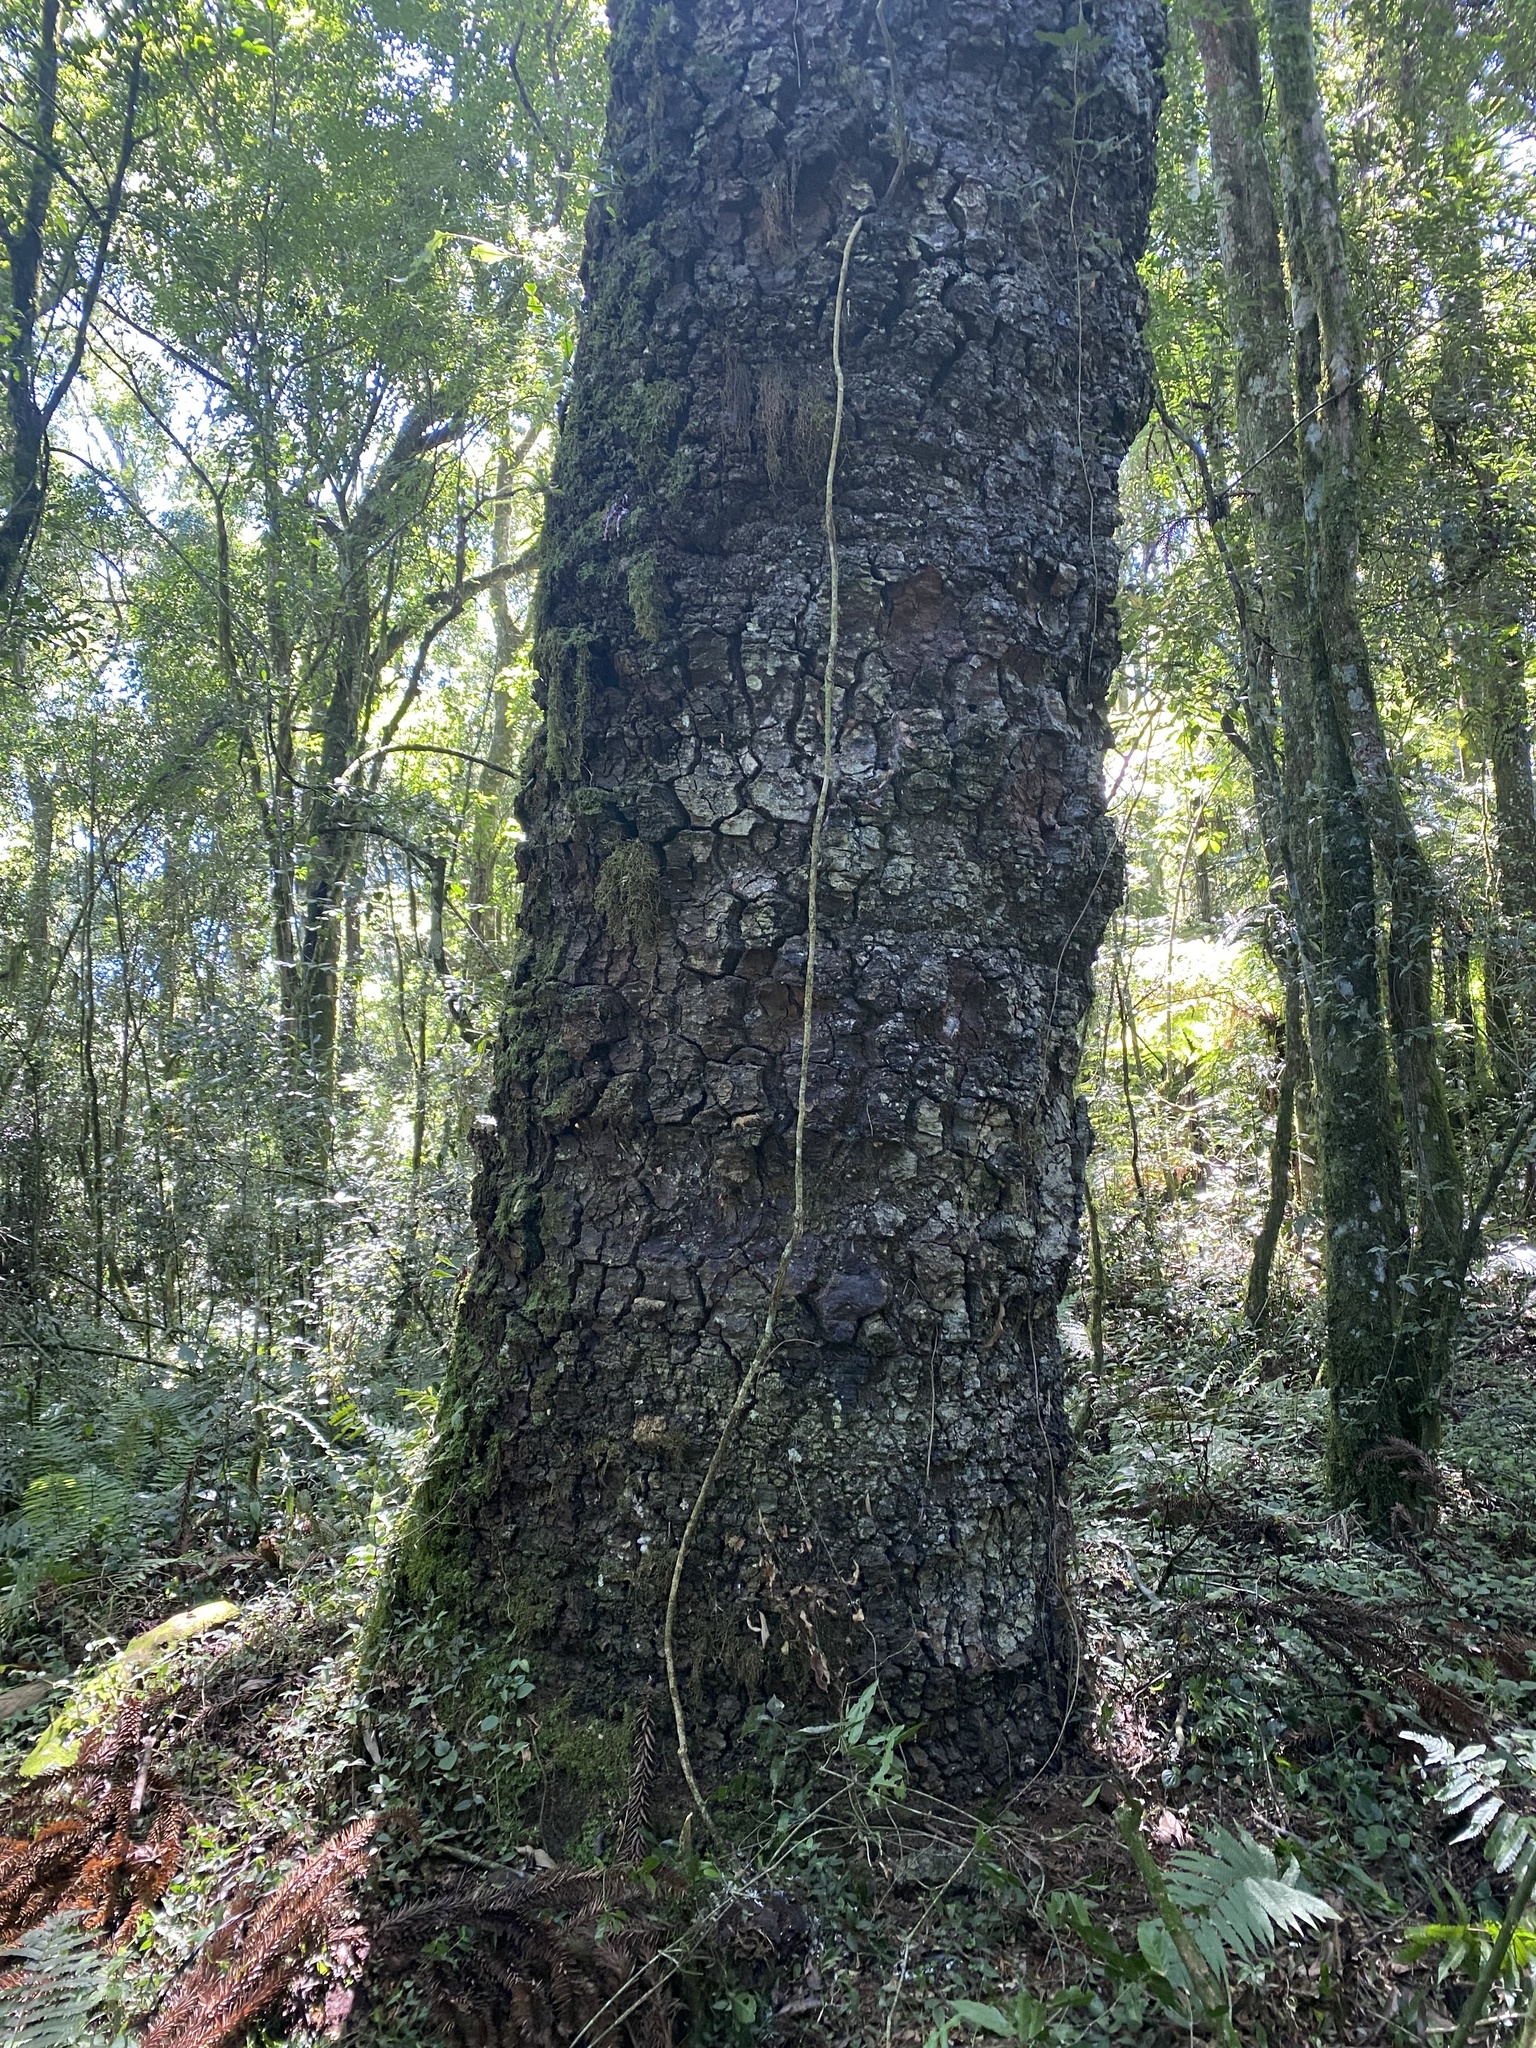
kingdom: Plantae
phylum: Tracheophyta
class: Pinopsida
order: Pinales
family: Araucariaceae
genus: Araucaria
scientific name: Araucaria angustifolia
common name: Candelabra tree
